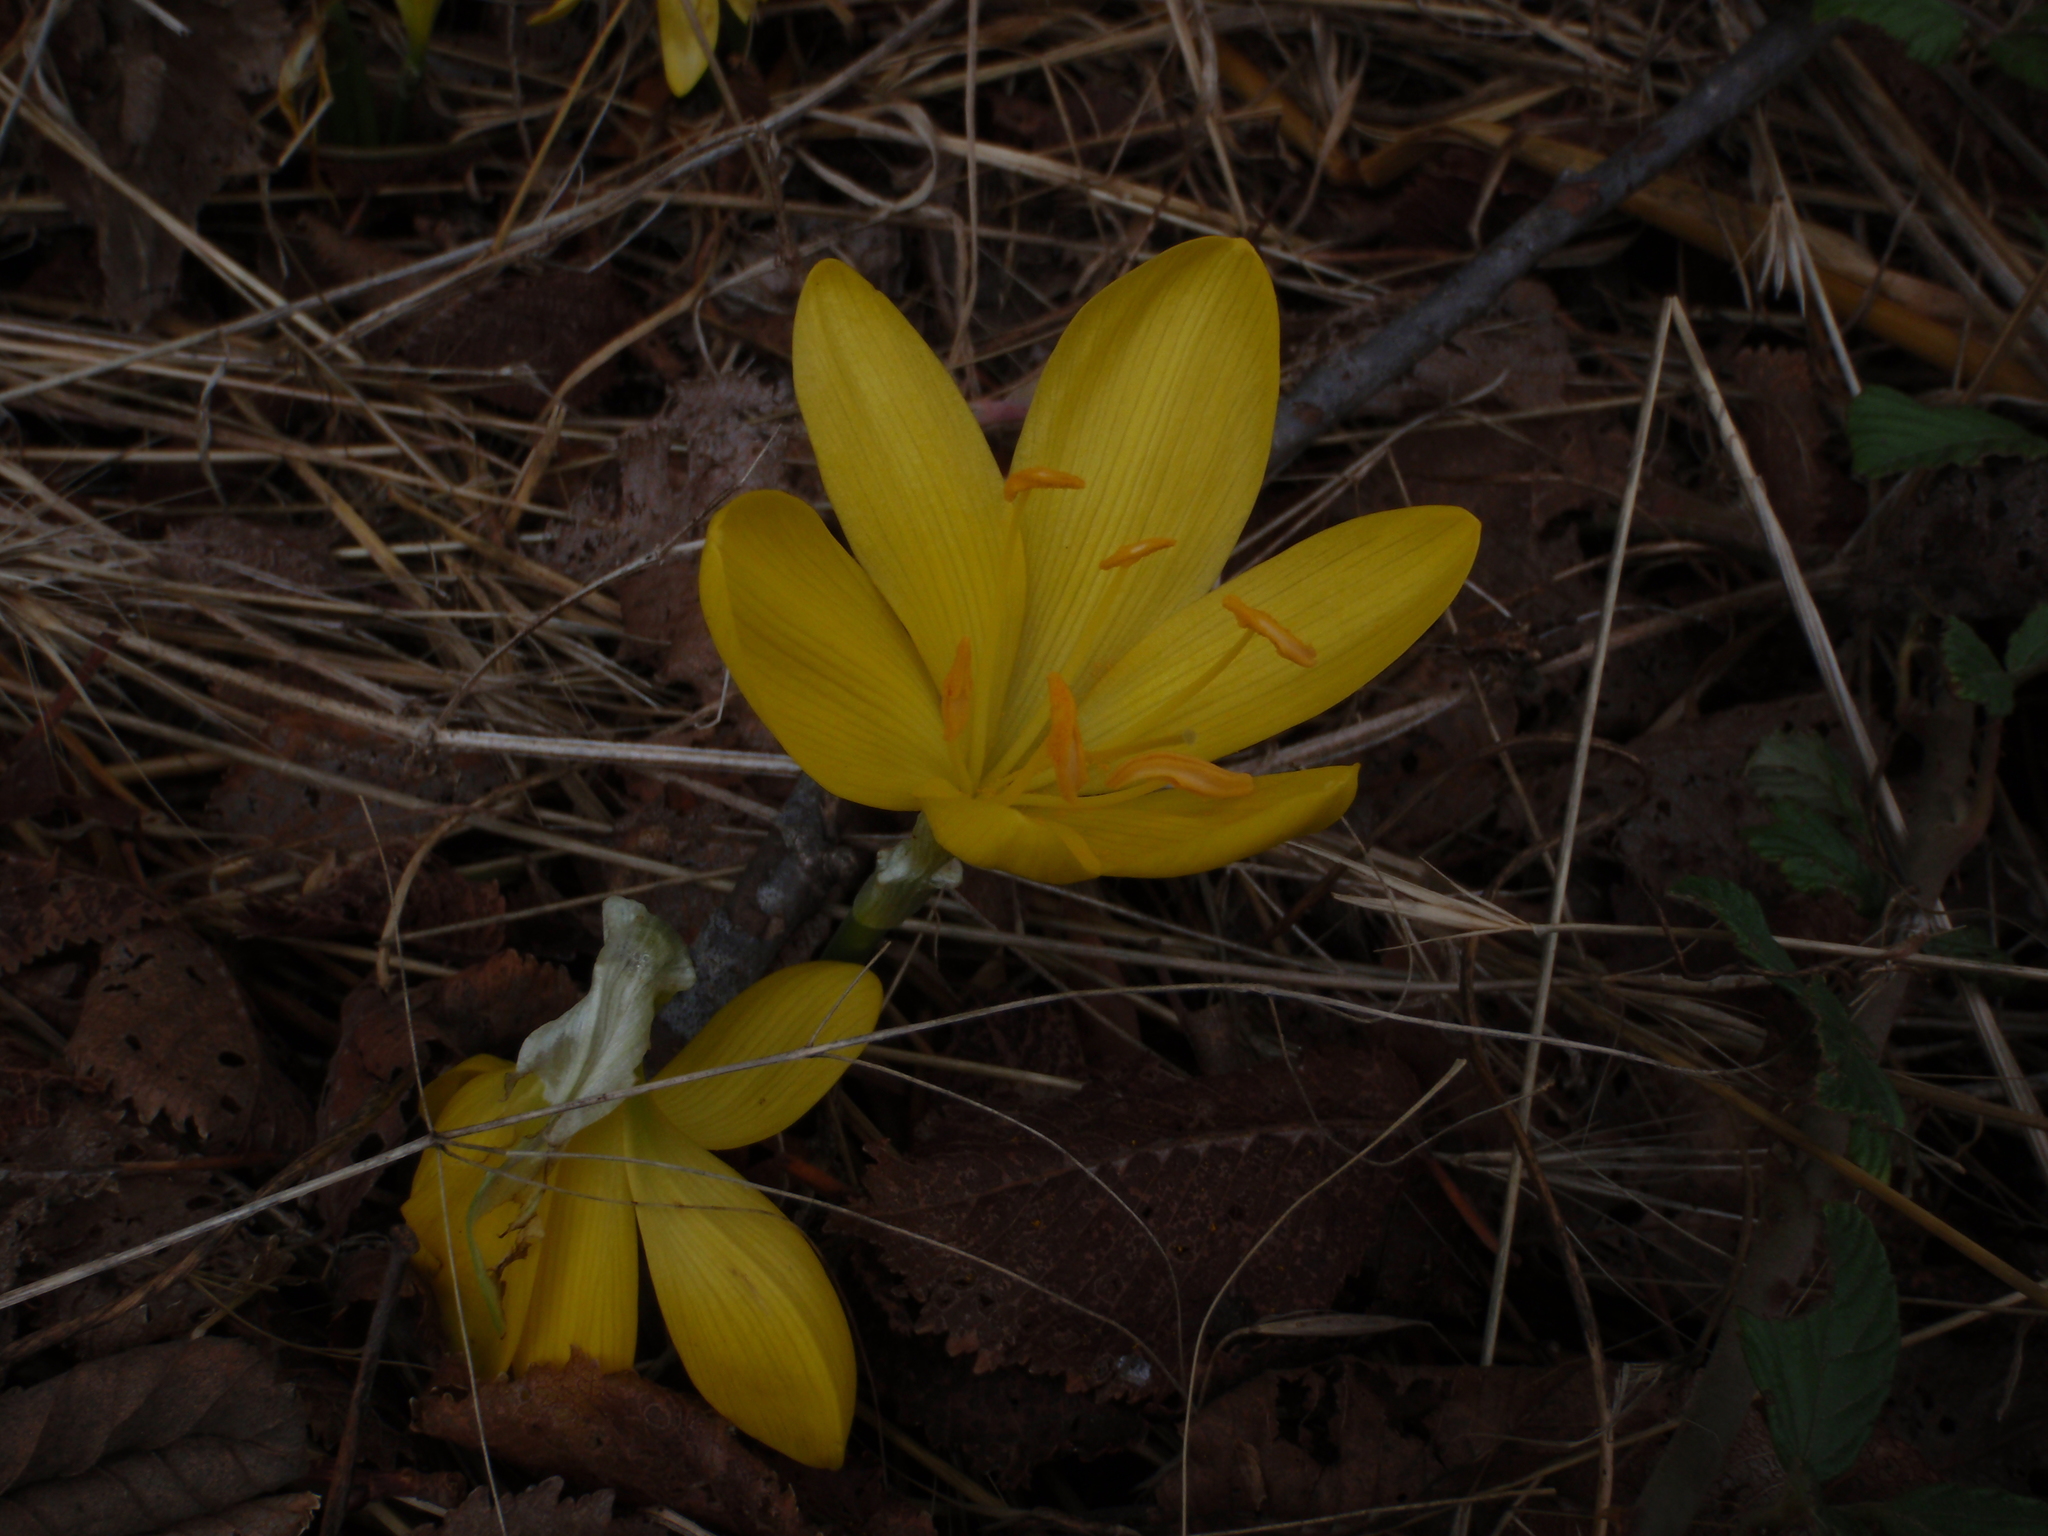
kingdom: Plantae
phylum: Tracheophyta
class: Liliopsida
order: Asparagales
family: Amaryllidaceae
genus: Sternbergia
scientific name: Sternbergia lutea
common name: Winter daffodil
